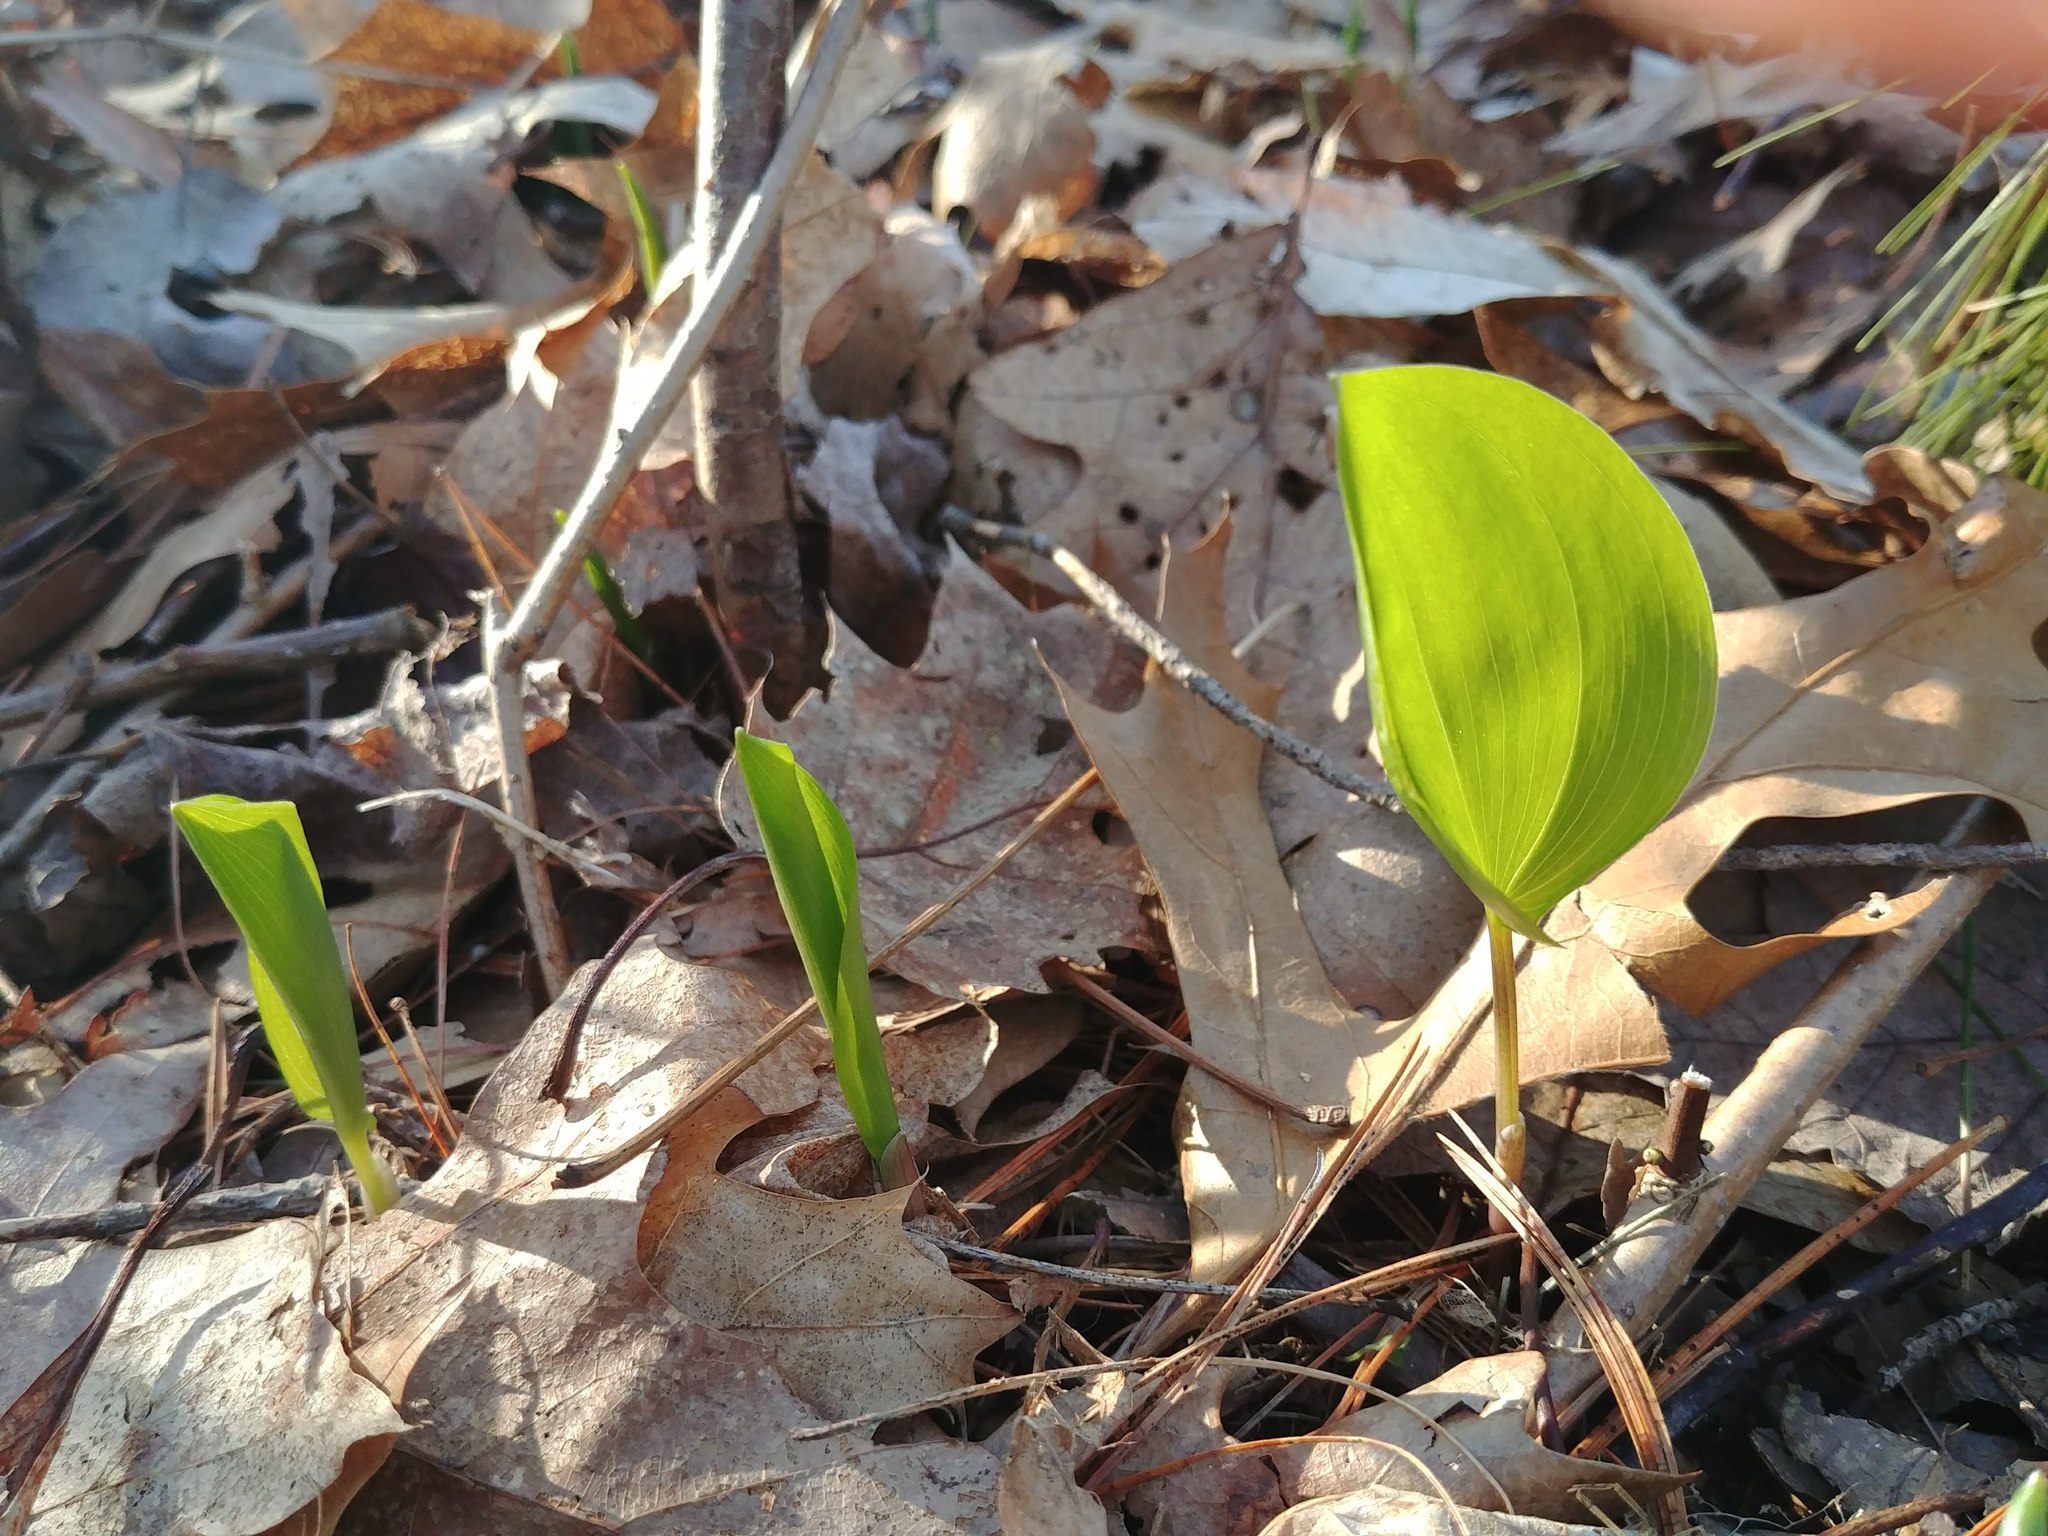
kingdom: Plantae
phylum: Tracheophyta
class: Liliopsida
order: Asparagales
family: Asparagaceae
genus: Maianthemum
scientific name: Maianthemum canadense
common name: False lily-of-the-valley
